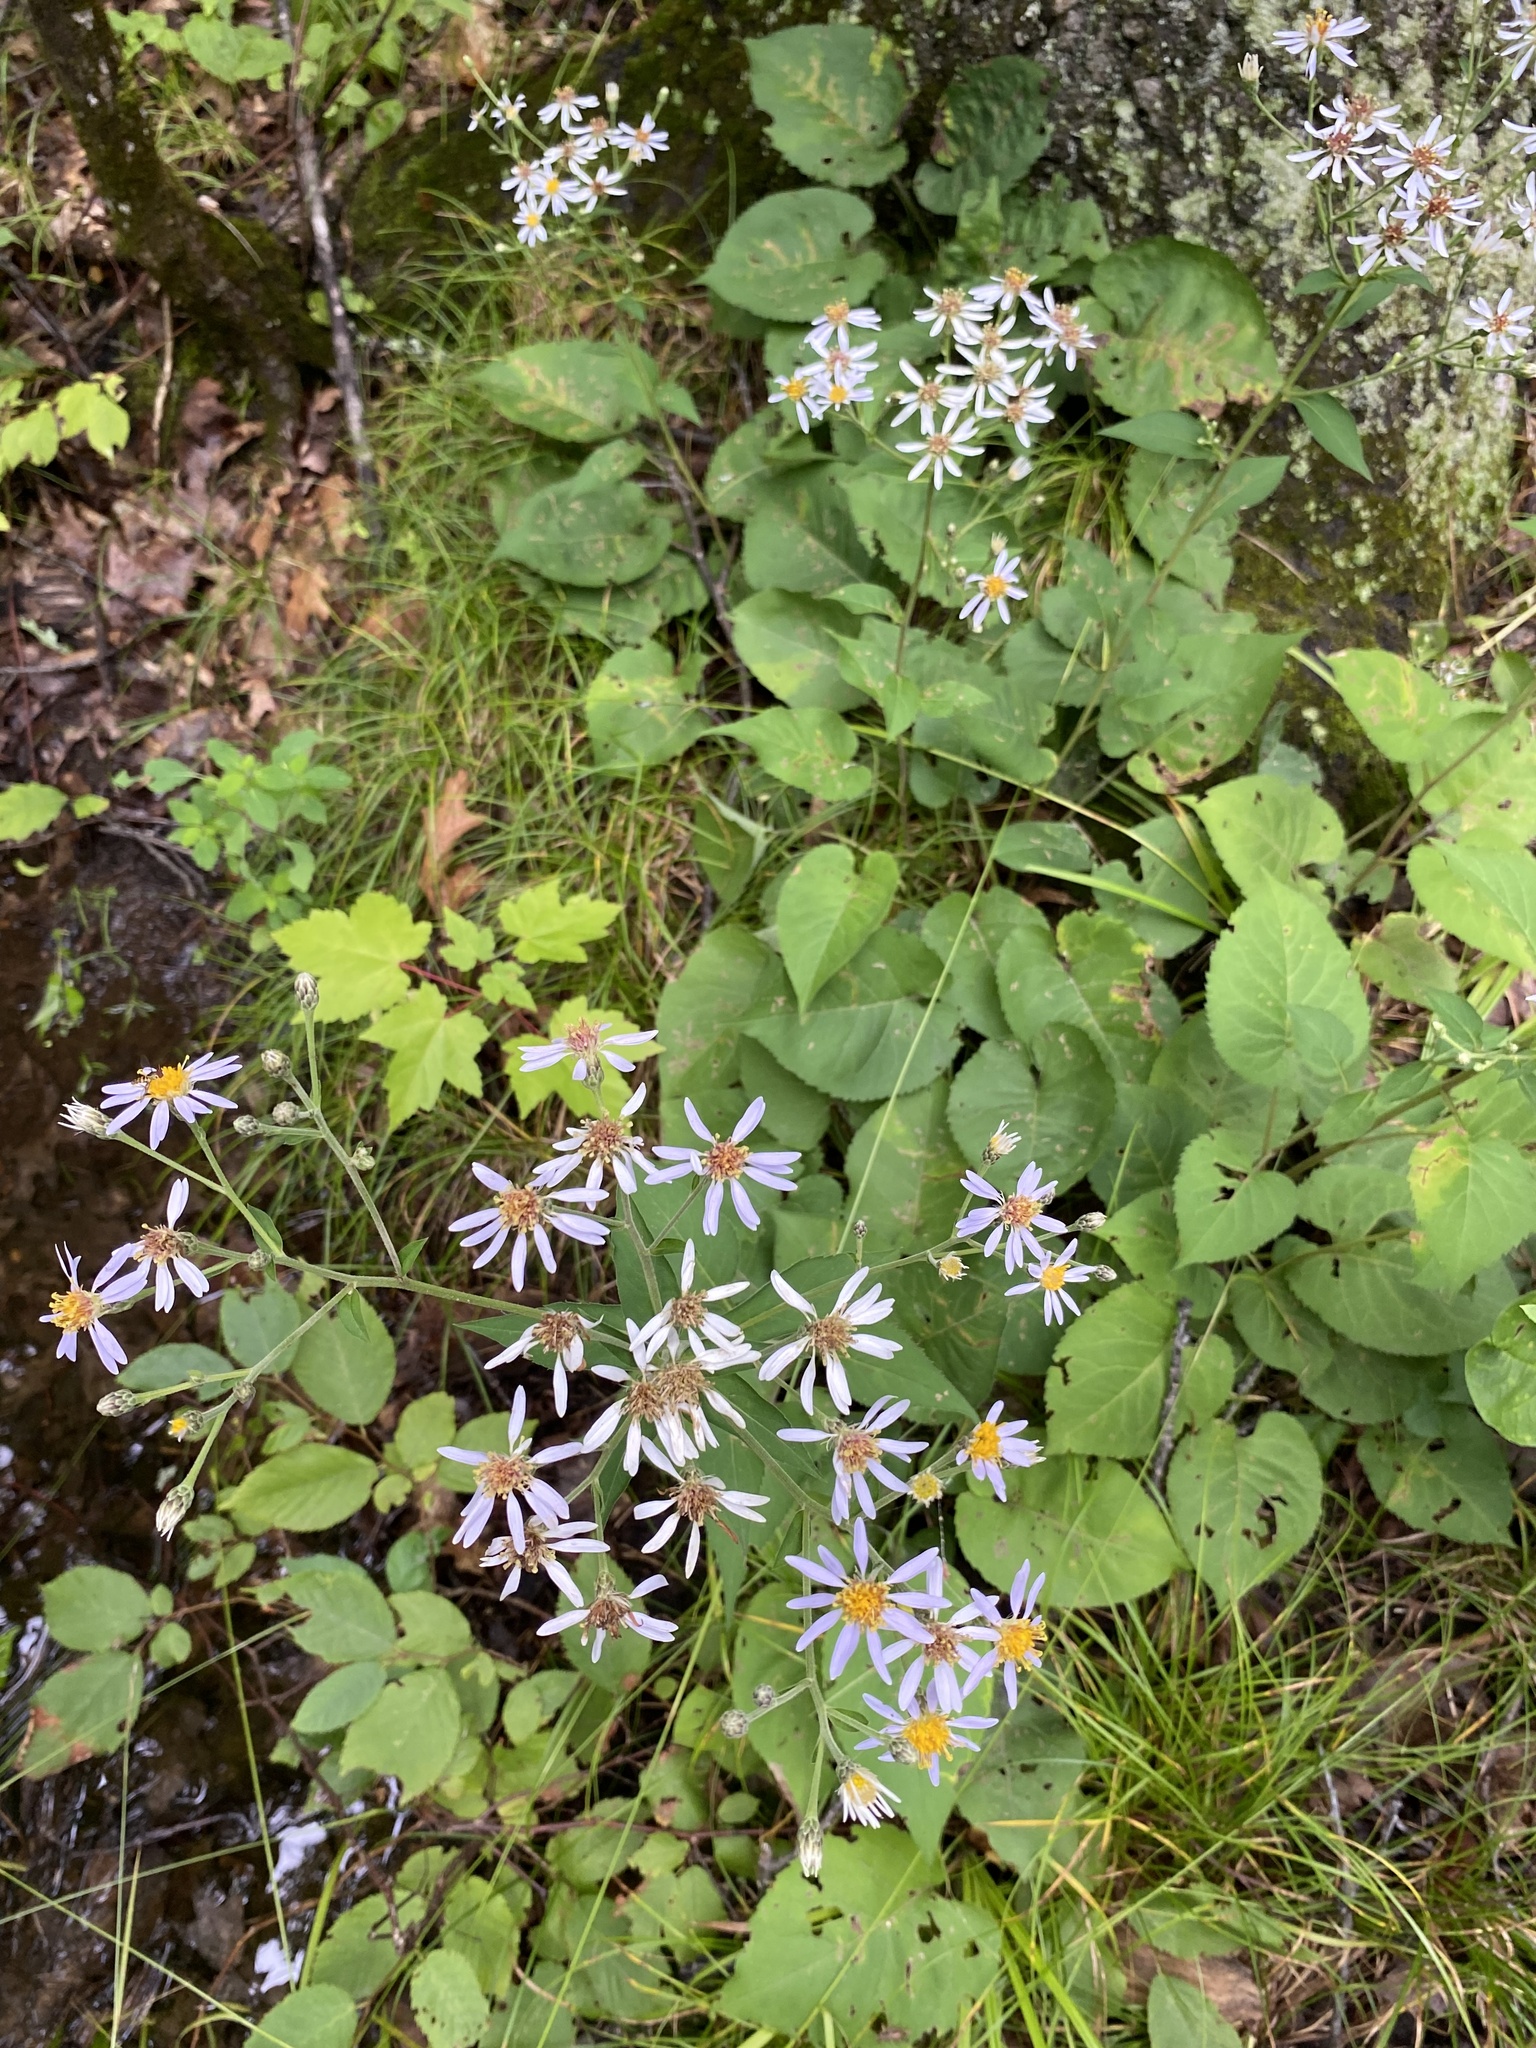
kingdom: Plantae
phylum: Tracheophyta
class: Magnoliopsida
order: Asterales
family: Asteraceae
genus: Eurybia
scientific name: Eurybia macrophylla
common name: Big-leaved aster
